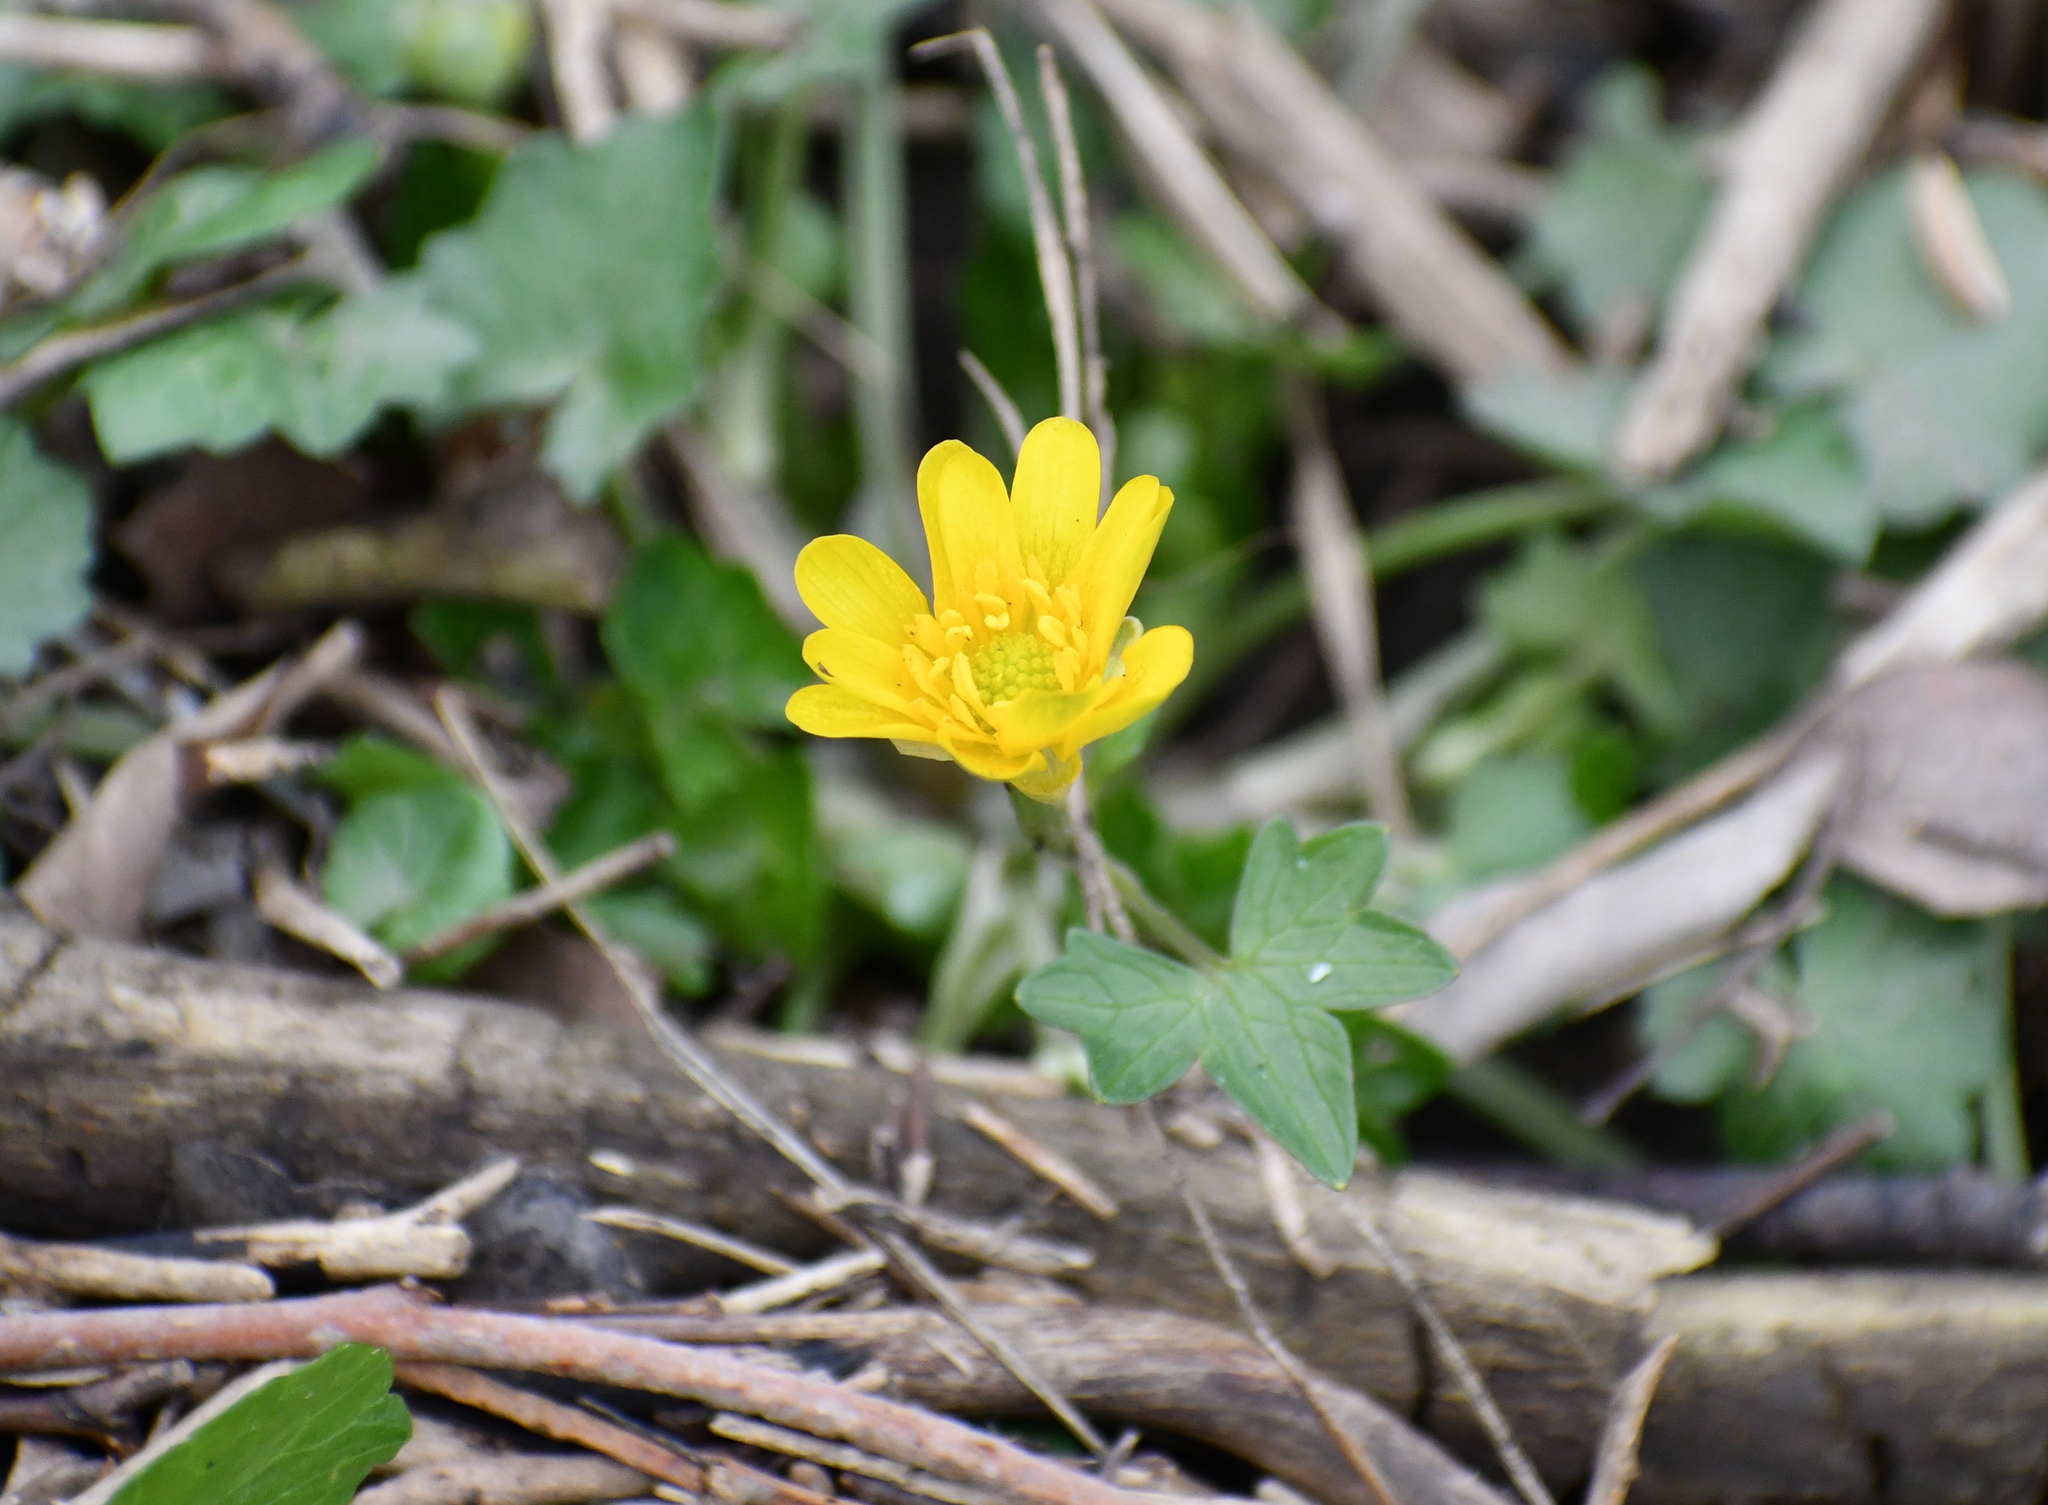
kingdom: Plantae
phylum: Tracheophyta
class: Magnoliopsida
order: Ranunculales
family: Ranunculaceae
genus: Ficaria
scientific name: Ficaria verna
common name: Lesser celandine
